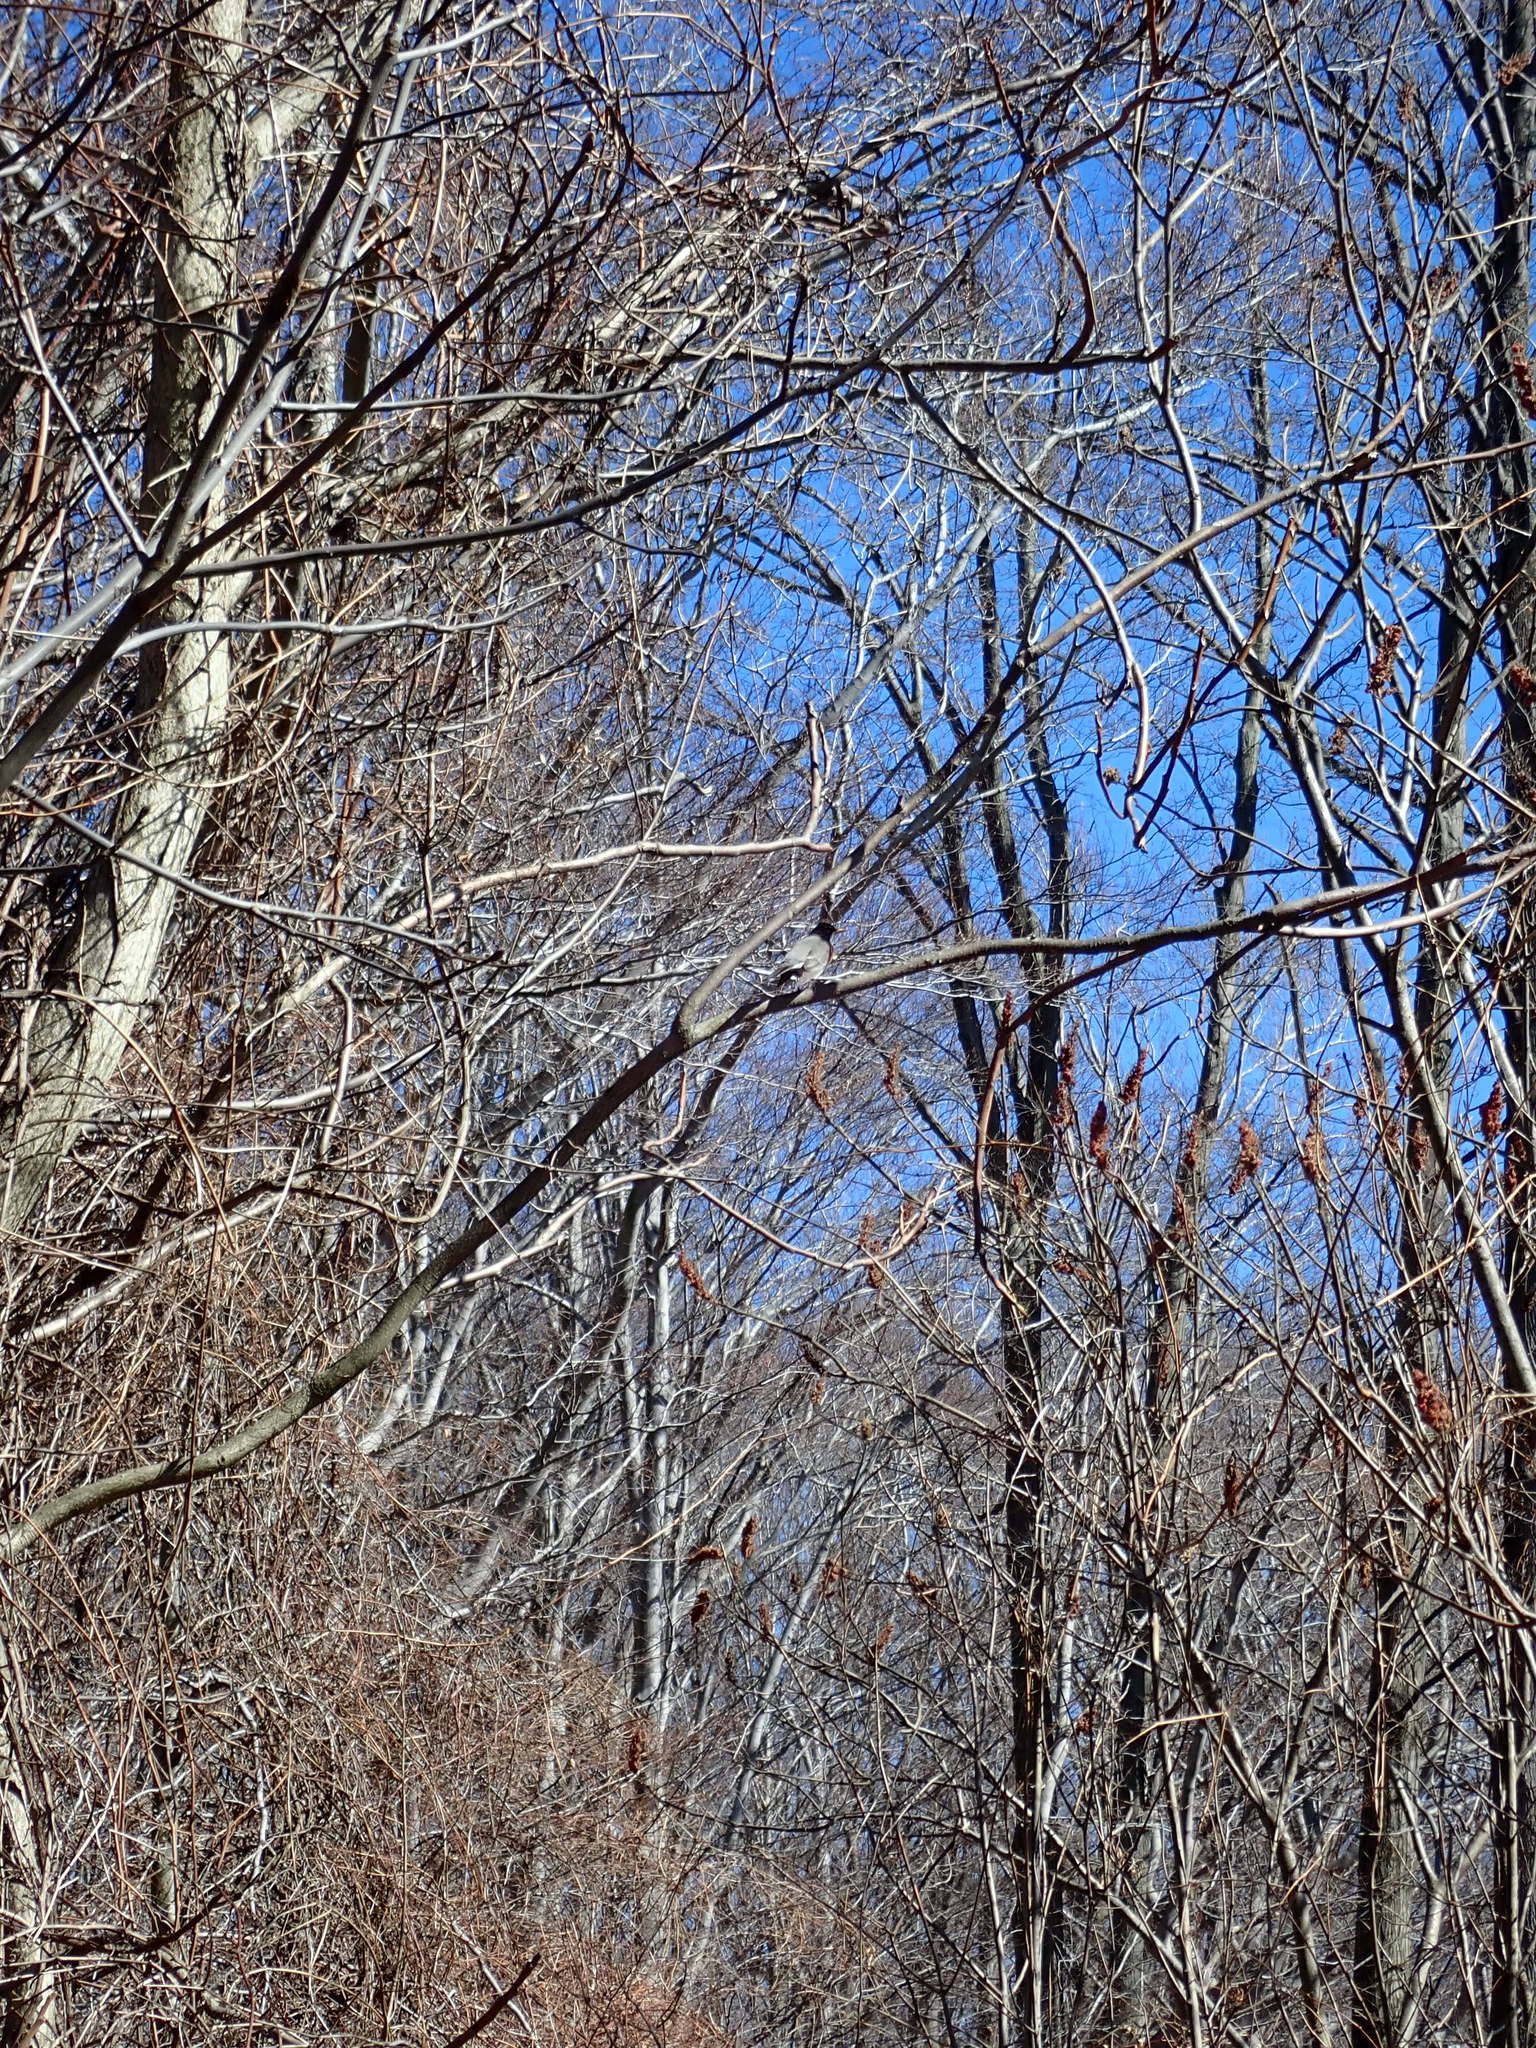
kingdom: Animalia
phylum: Chordata
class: Aves
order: Passeriformes
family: Turdidae
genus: Turdus
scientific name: Turdus migratorius
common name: American robin
